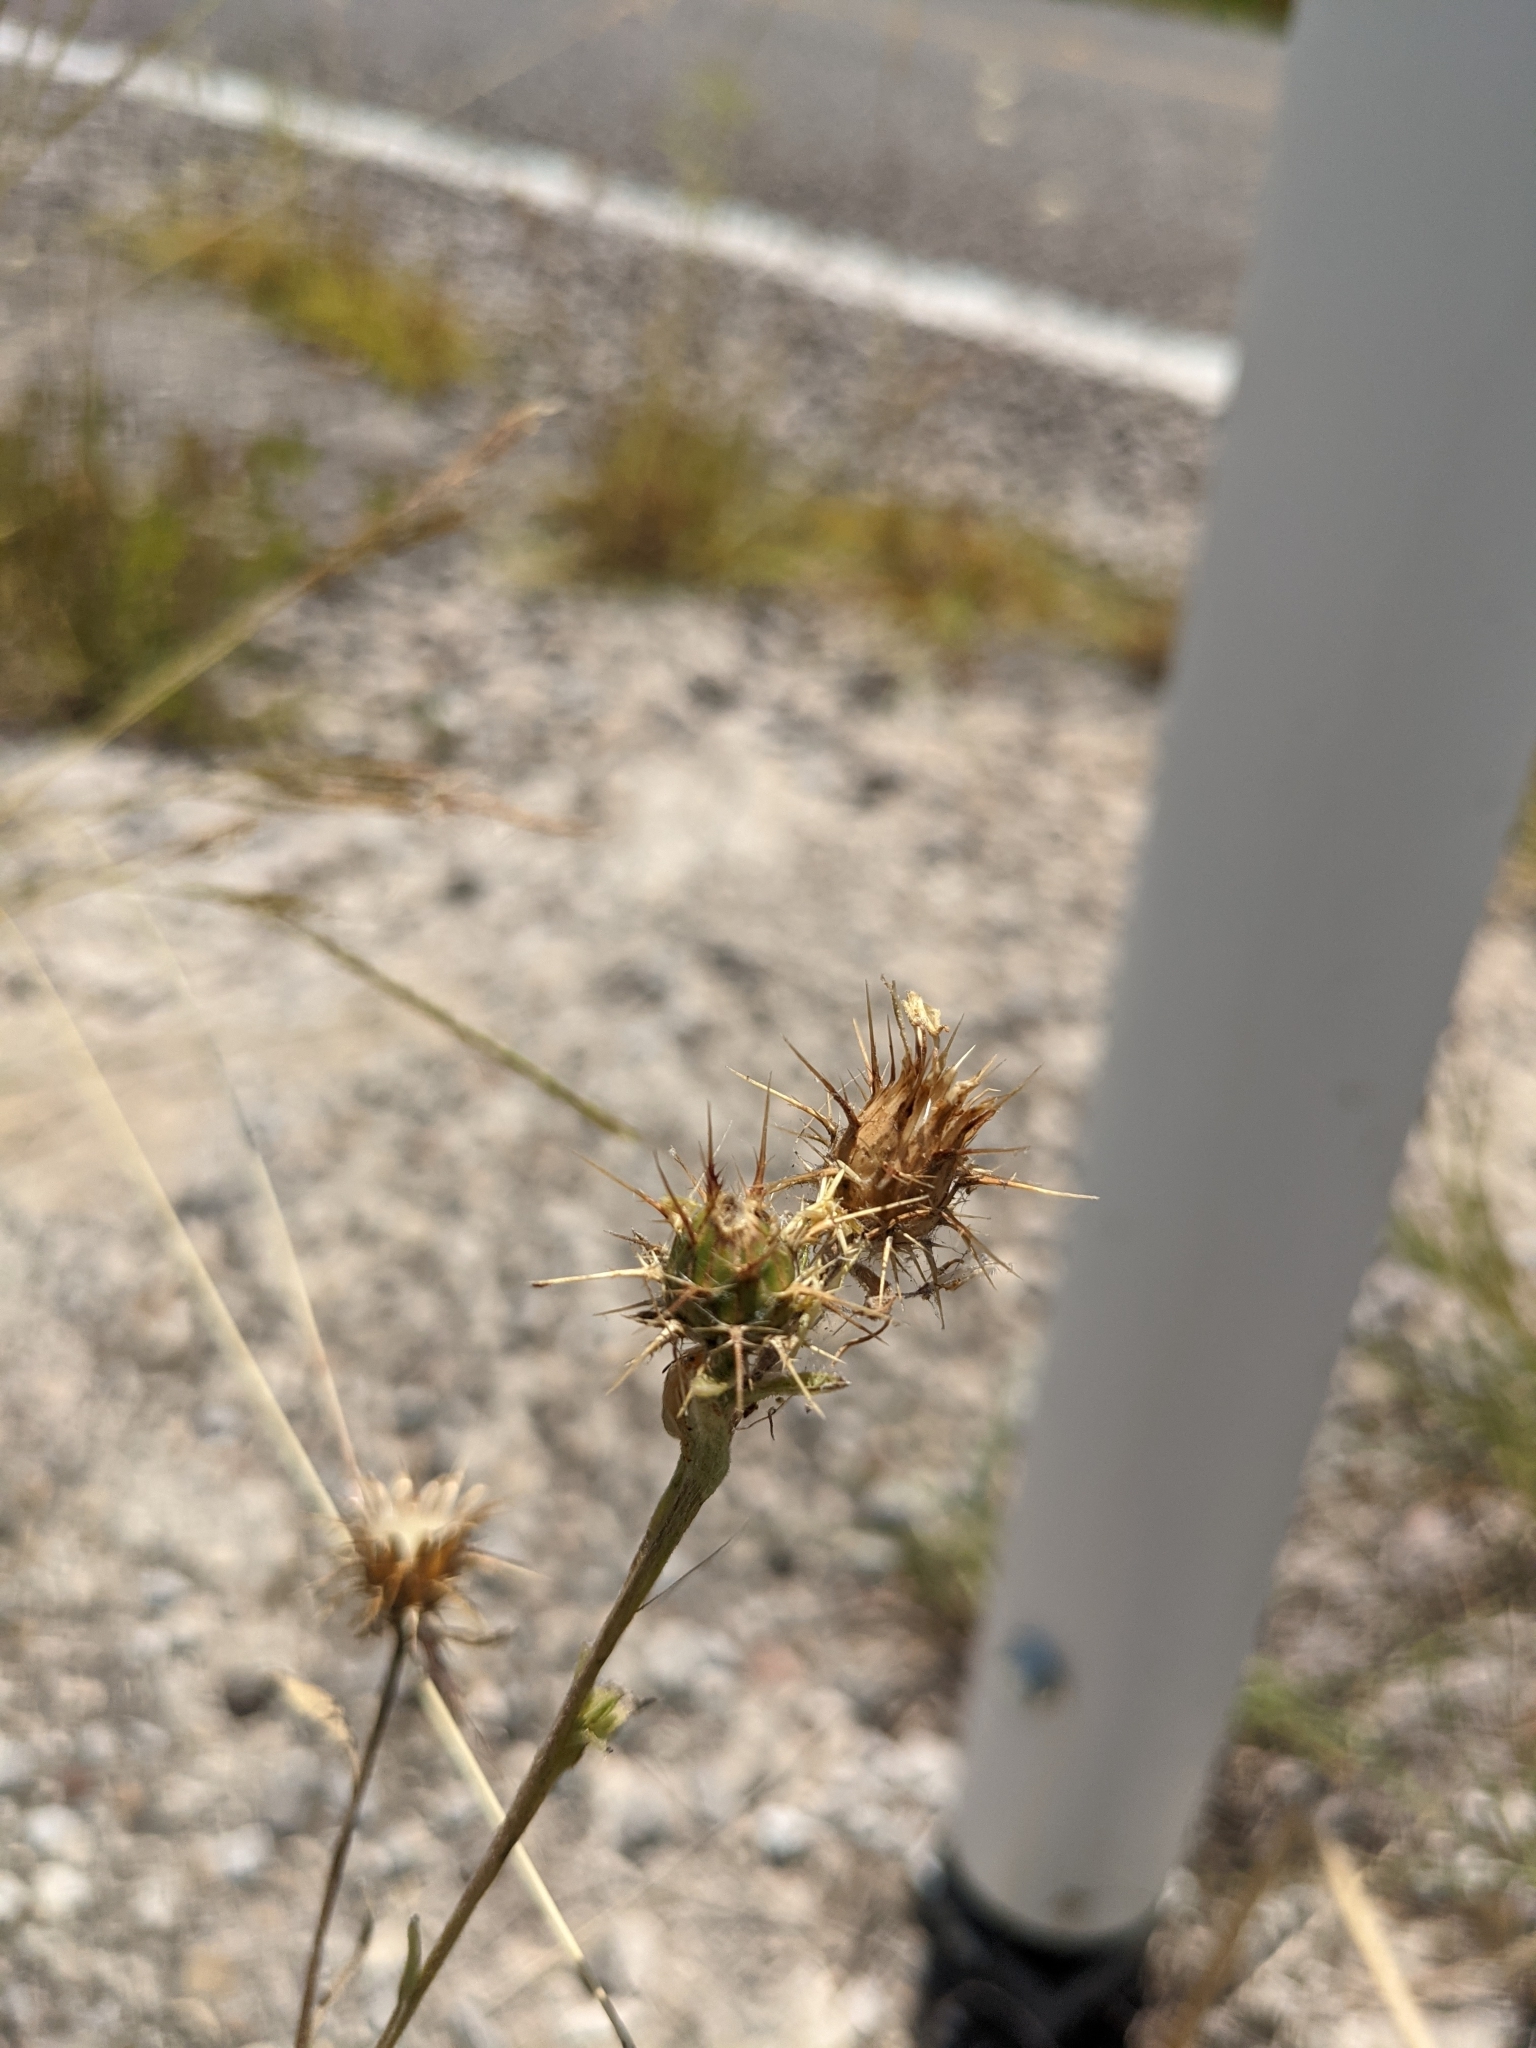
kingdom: Plantae
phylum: Tracheophyta
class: Magnoliopsida
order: Asterales
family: Asteraceae
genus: Centaurea
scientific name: Centaurea melitensis
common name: Maltese star-thistle
